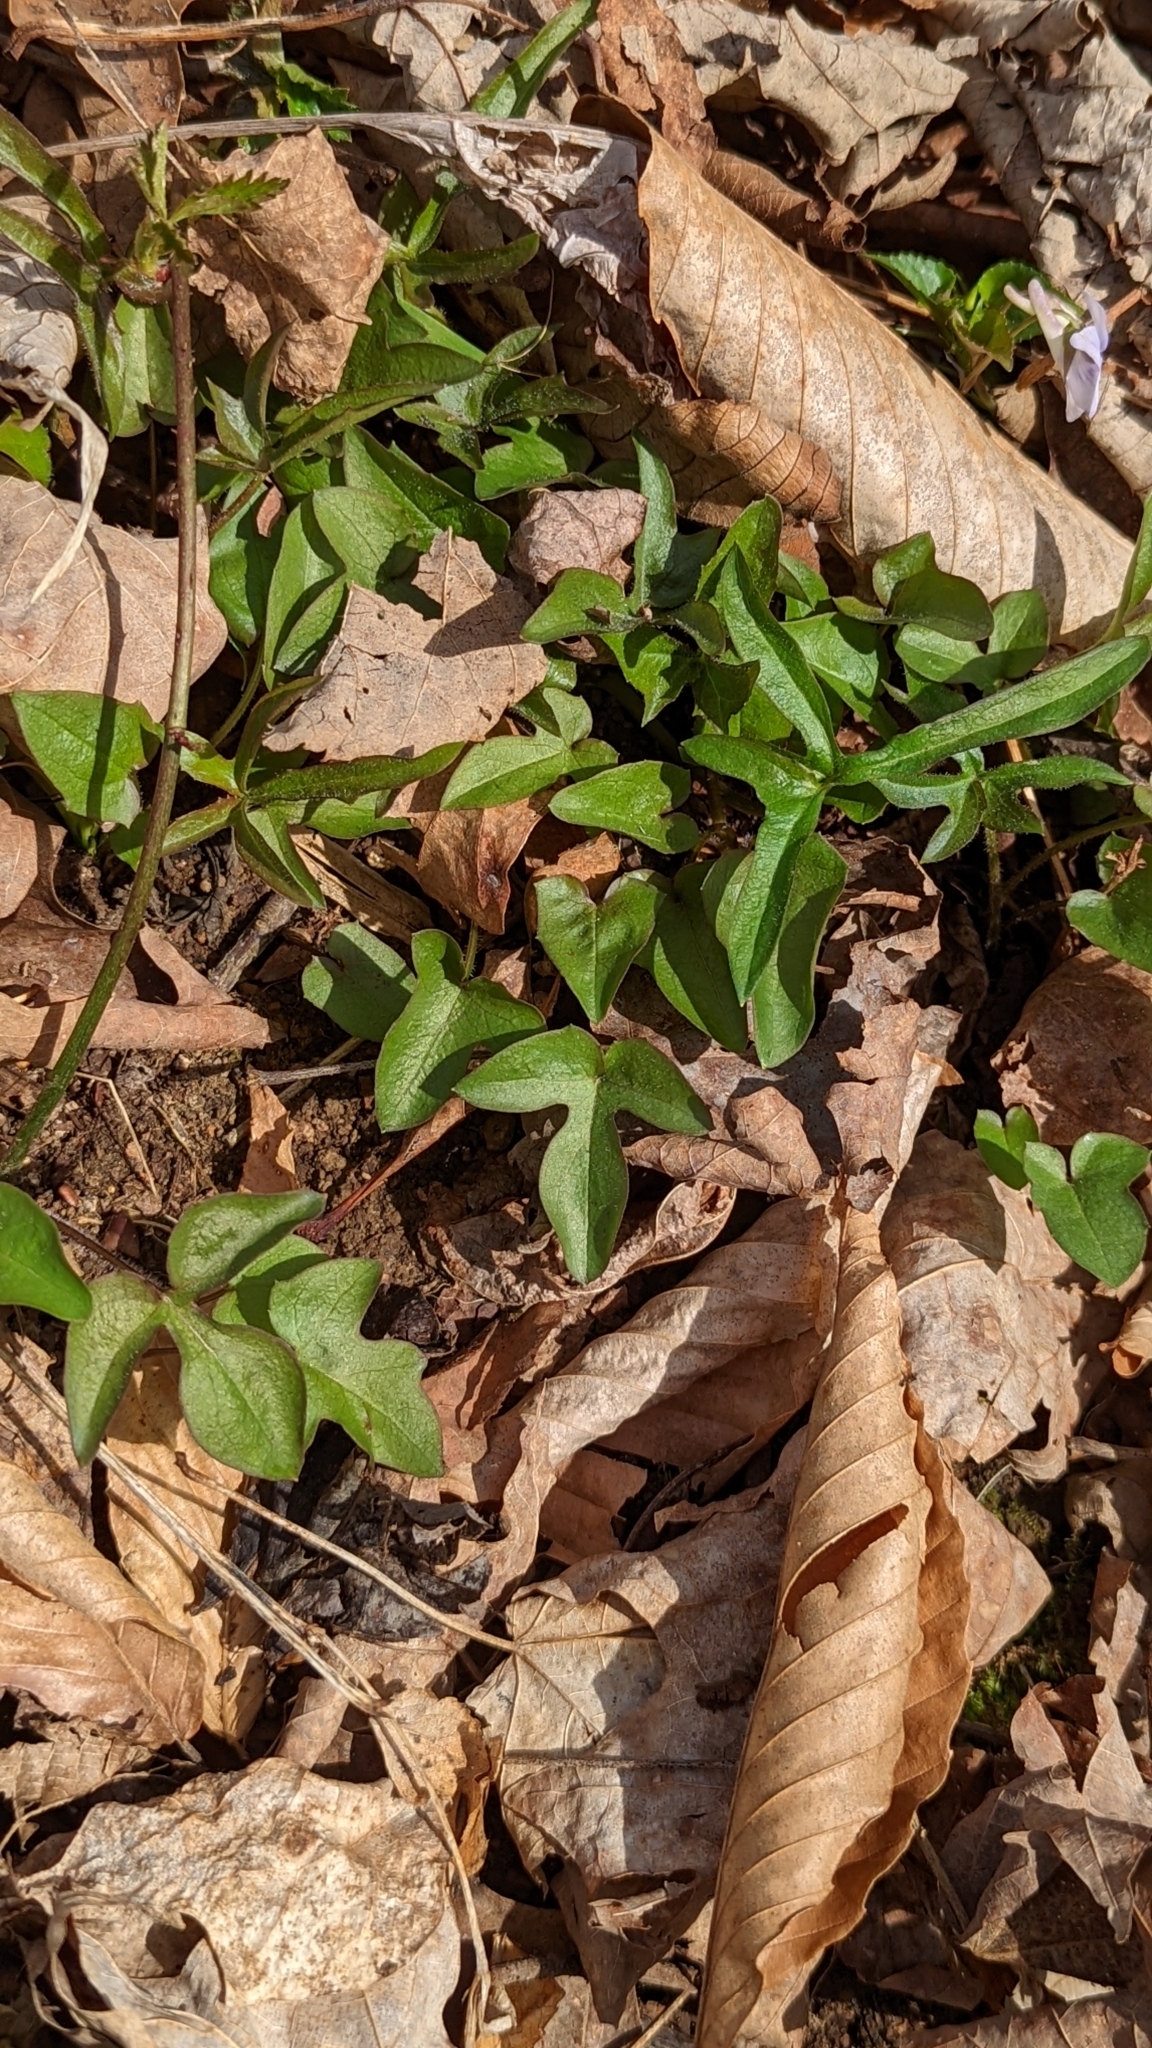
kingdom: Plantae
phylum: Tracheophyta
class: Magnoliopsida
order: Asterales
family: Asteraceae
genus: Nabalus
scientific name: Nabalus altissima
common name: Tall rattlesnakeroot
